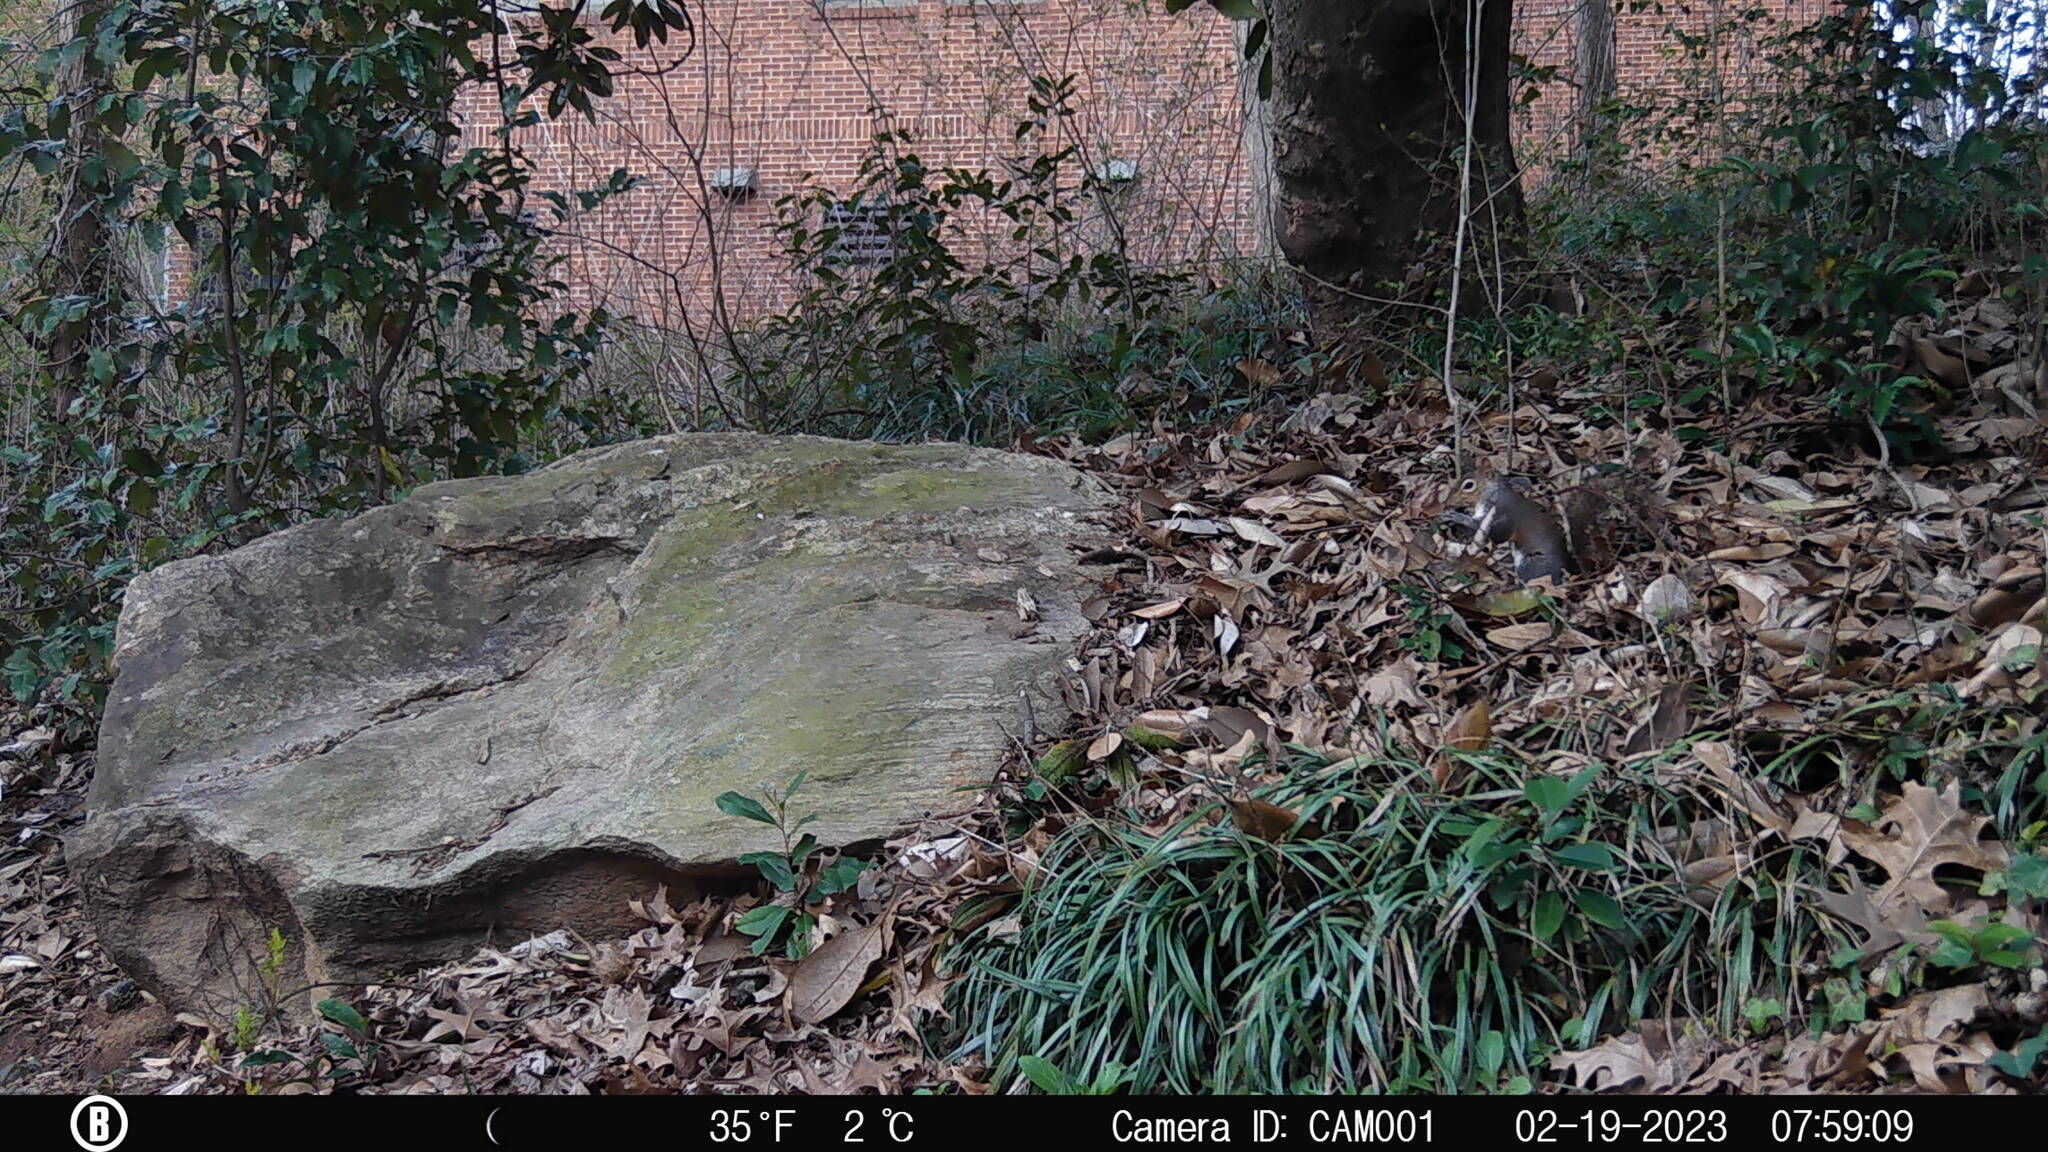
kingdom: Animalia
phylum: Chordata
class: Mammalia
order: Rodentia
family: Sciuridae
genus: Sciurus
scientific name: Sciurus carolinensis
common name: Eastern gray squirrel
